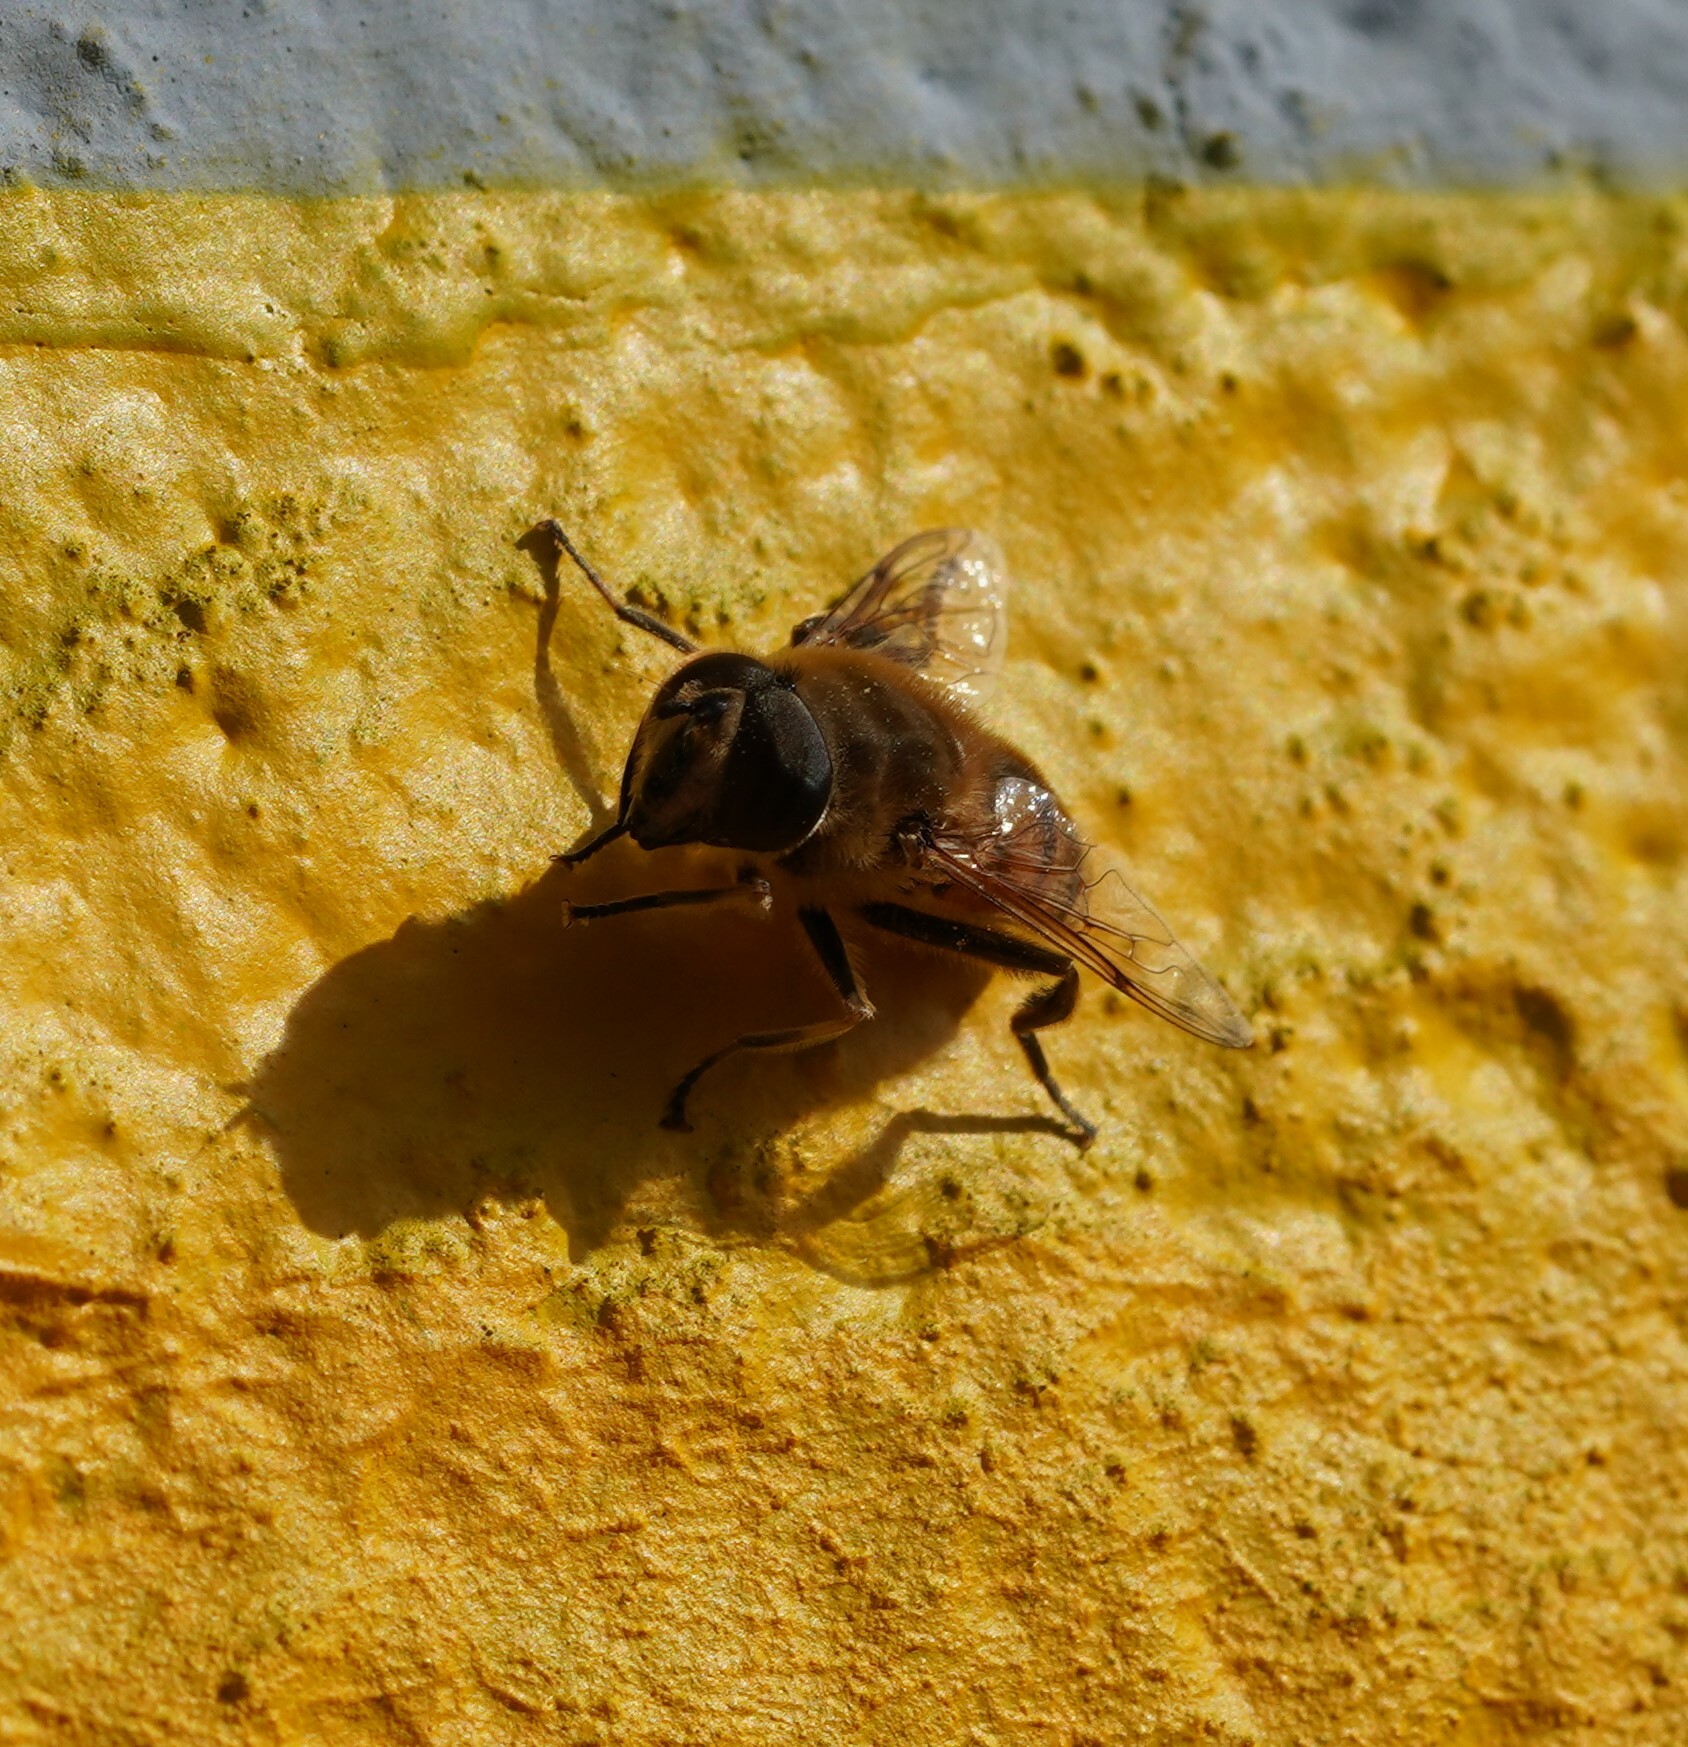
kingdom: Animalia
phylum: Arthropoda
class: Insecta
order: Diptera
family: Syrphidae
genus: Eristalis
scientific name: Eristalis tenax
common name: Drone fly
